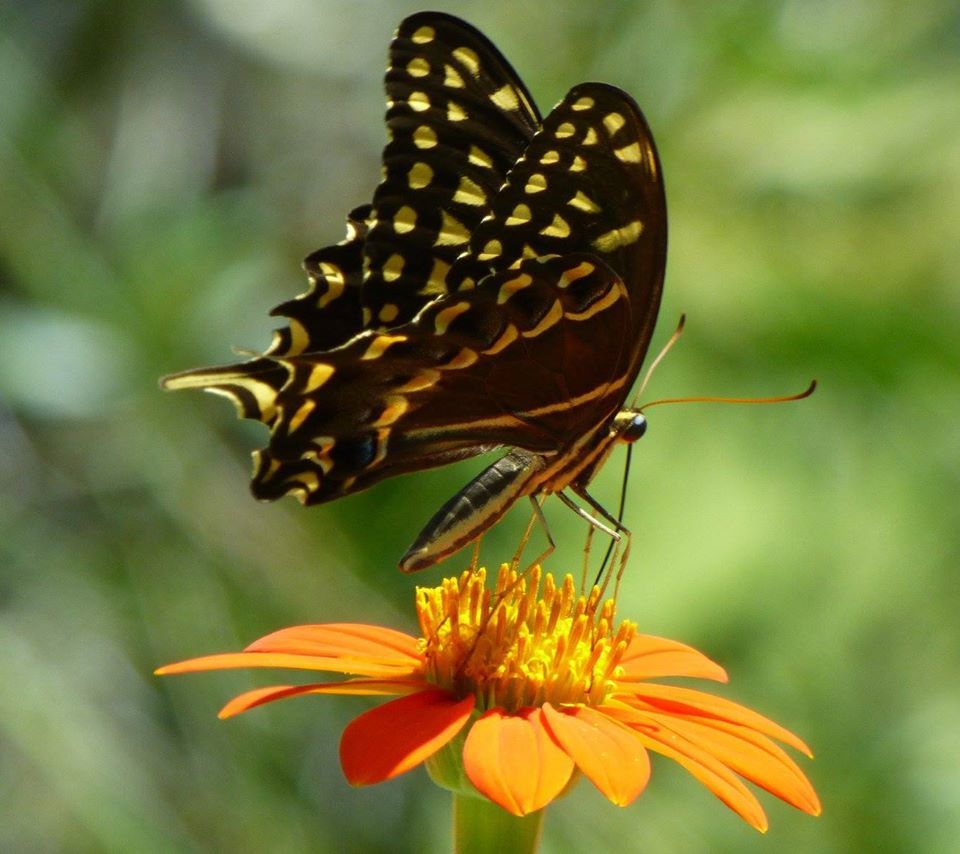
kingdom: Animalia
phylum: Arthropoda
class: Insecta
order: Lepidoptera
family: Papilionidae
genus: Papilio
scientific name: Papilio palamedes
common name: Palamedes swallowtail
